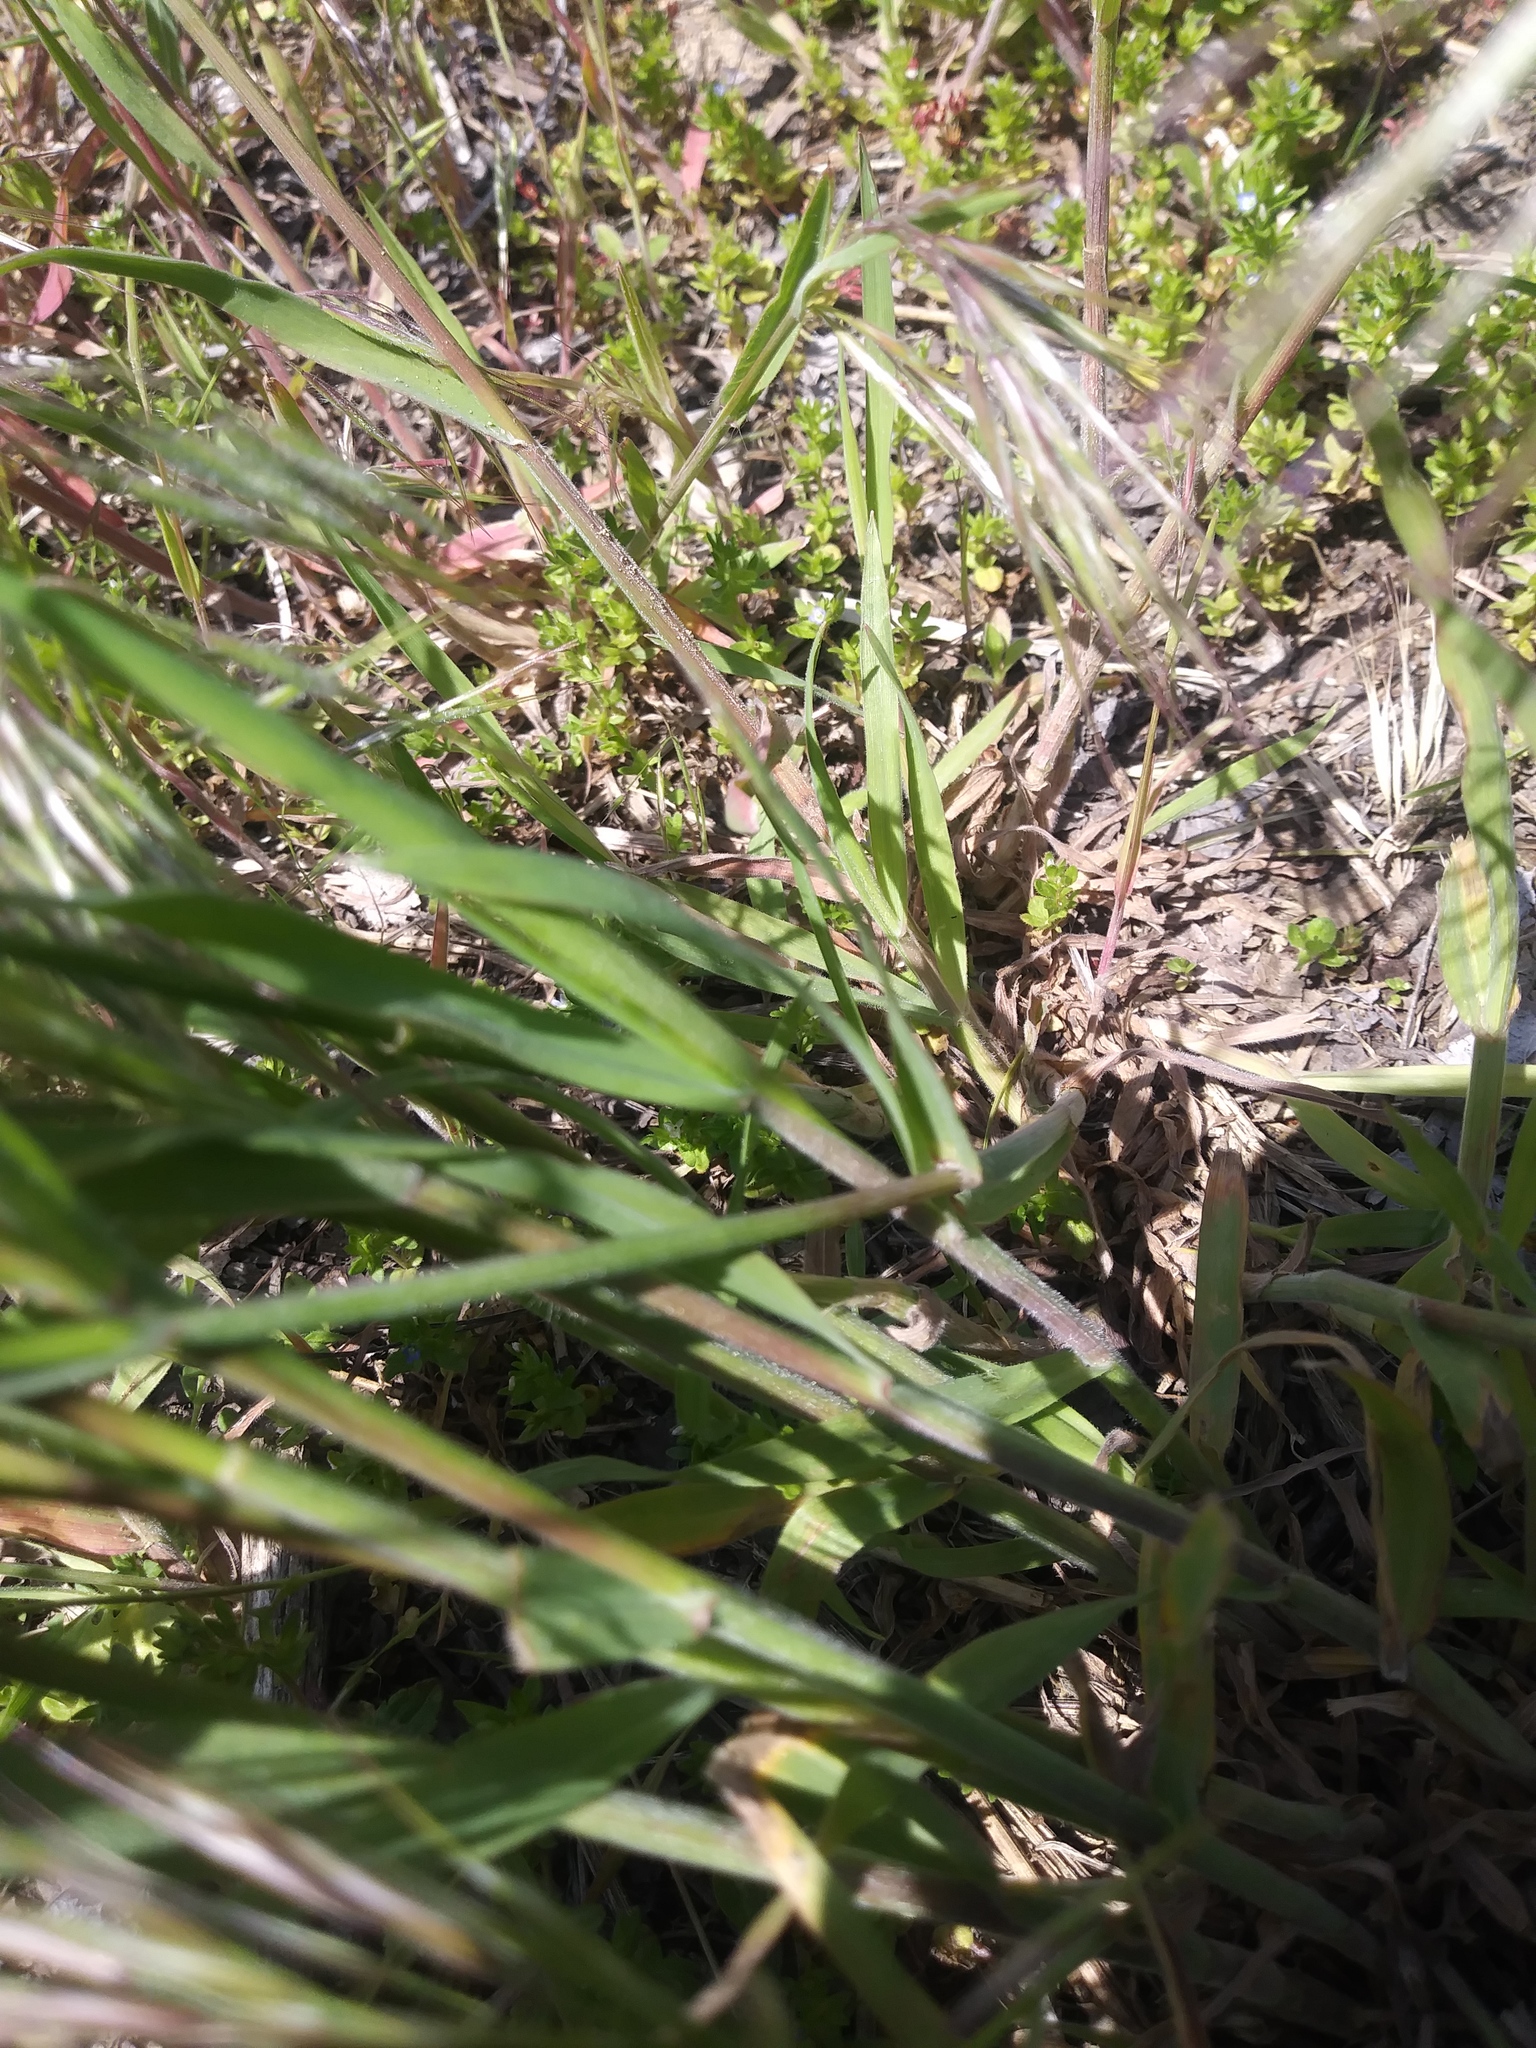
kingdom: Plantae
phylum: Tracheophyta
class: Liliopsida
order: Poales
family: Poaceae
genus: Bromus
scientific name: Bromus tectorum
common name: Cheatgrass
